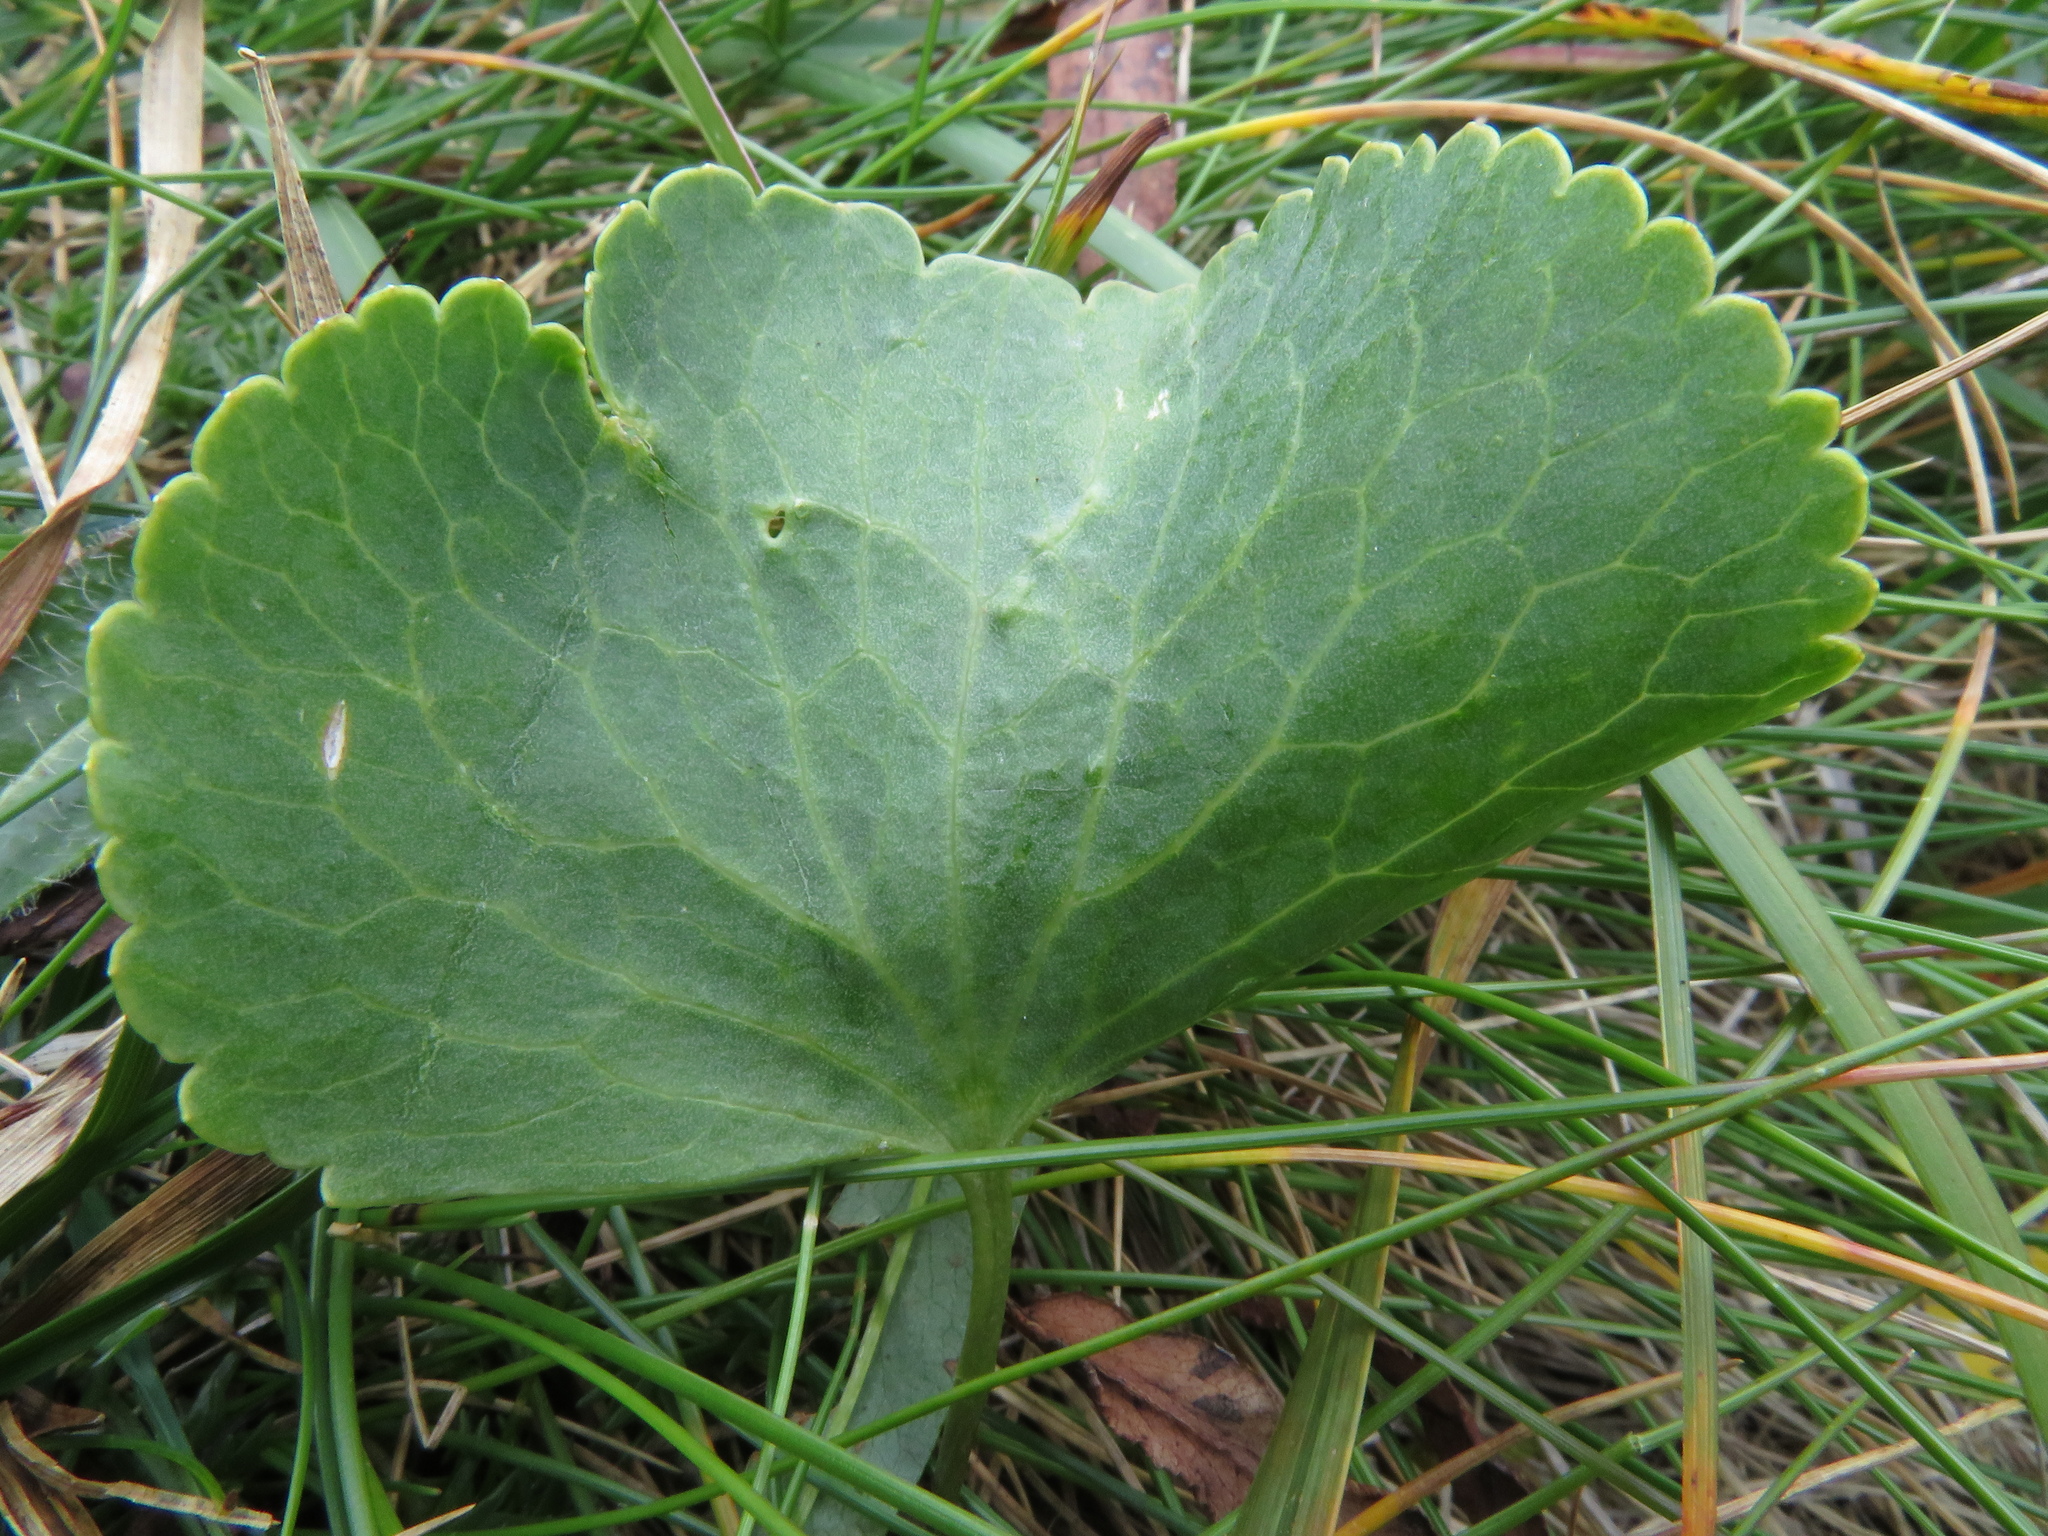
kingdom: Plantae
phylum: Tracheophyta
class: Magnoliopsida
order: Ranunculales
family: Ranunculaceae
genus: Ranunculus
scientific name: Ranunculus thora
